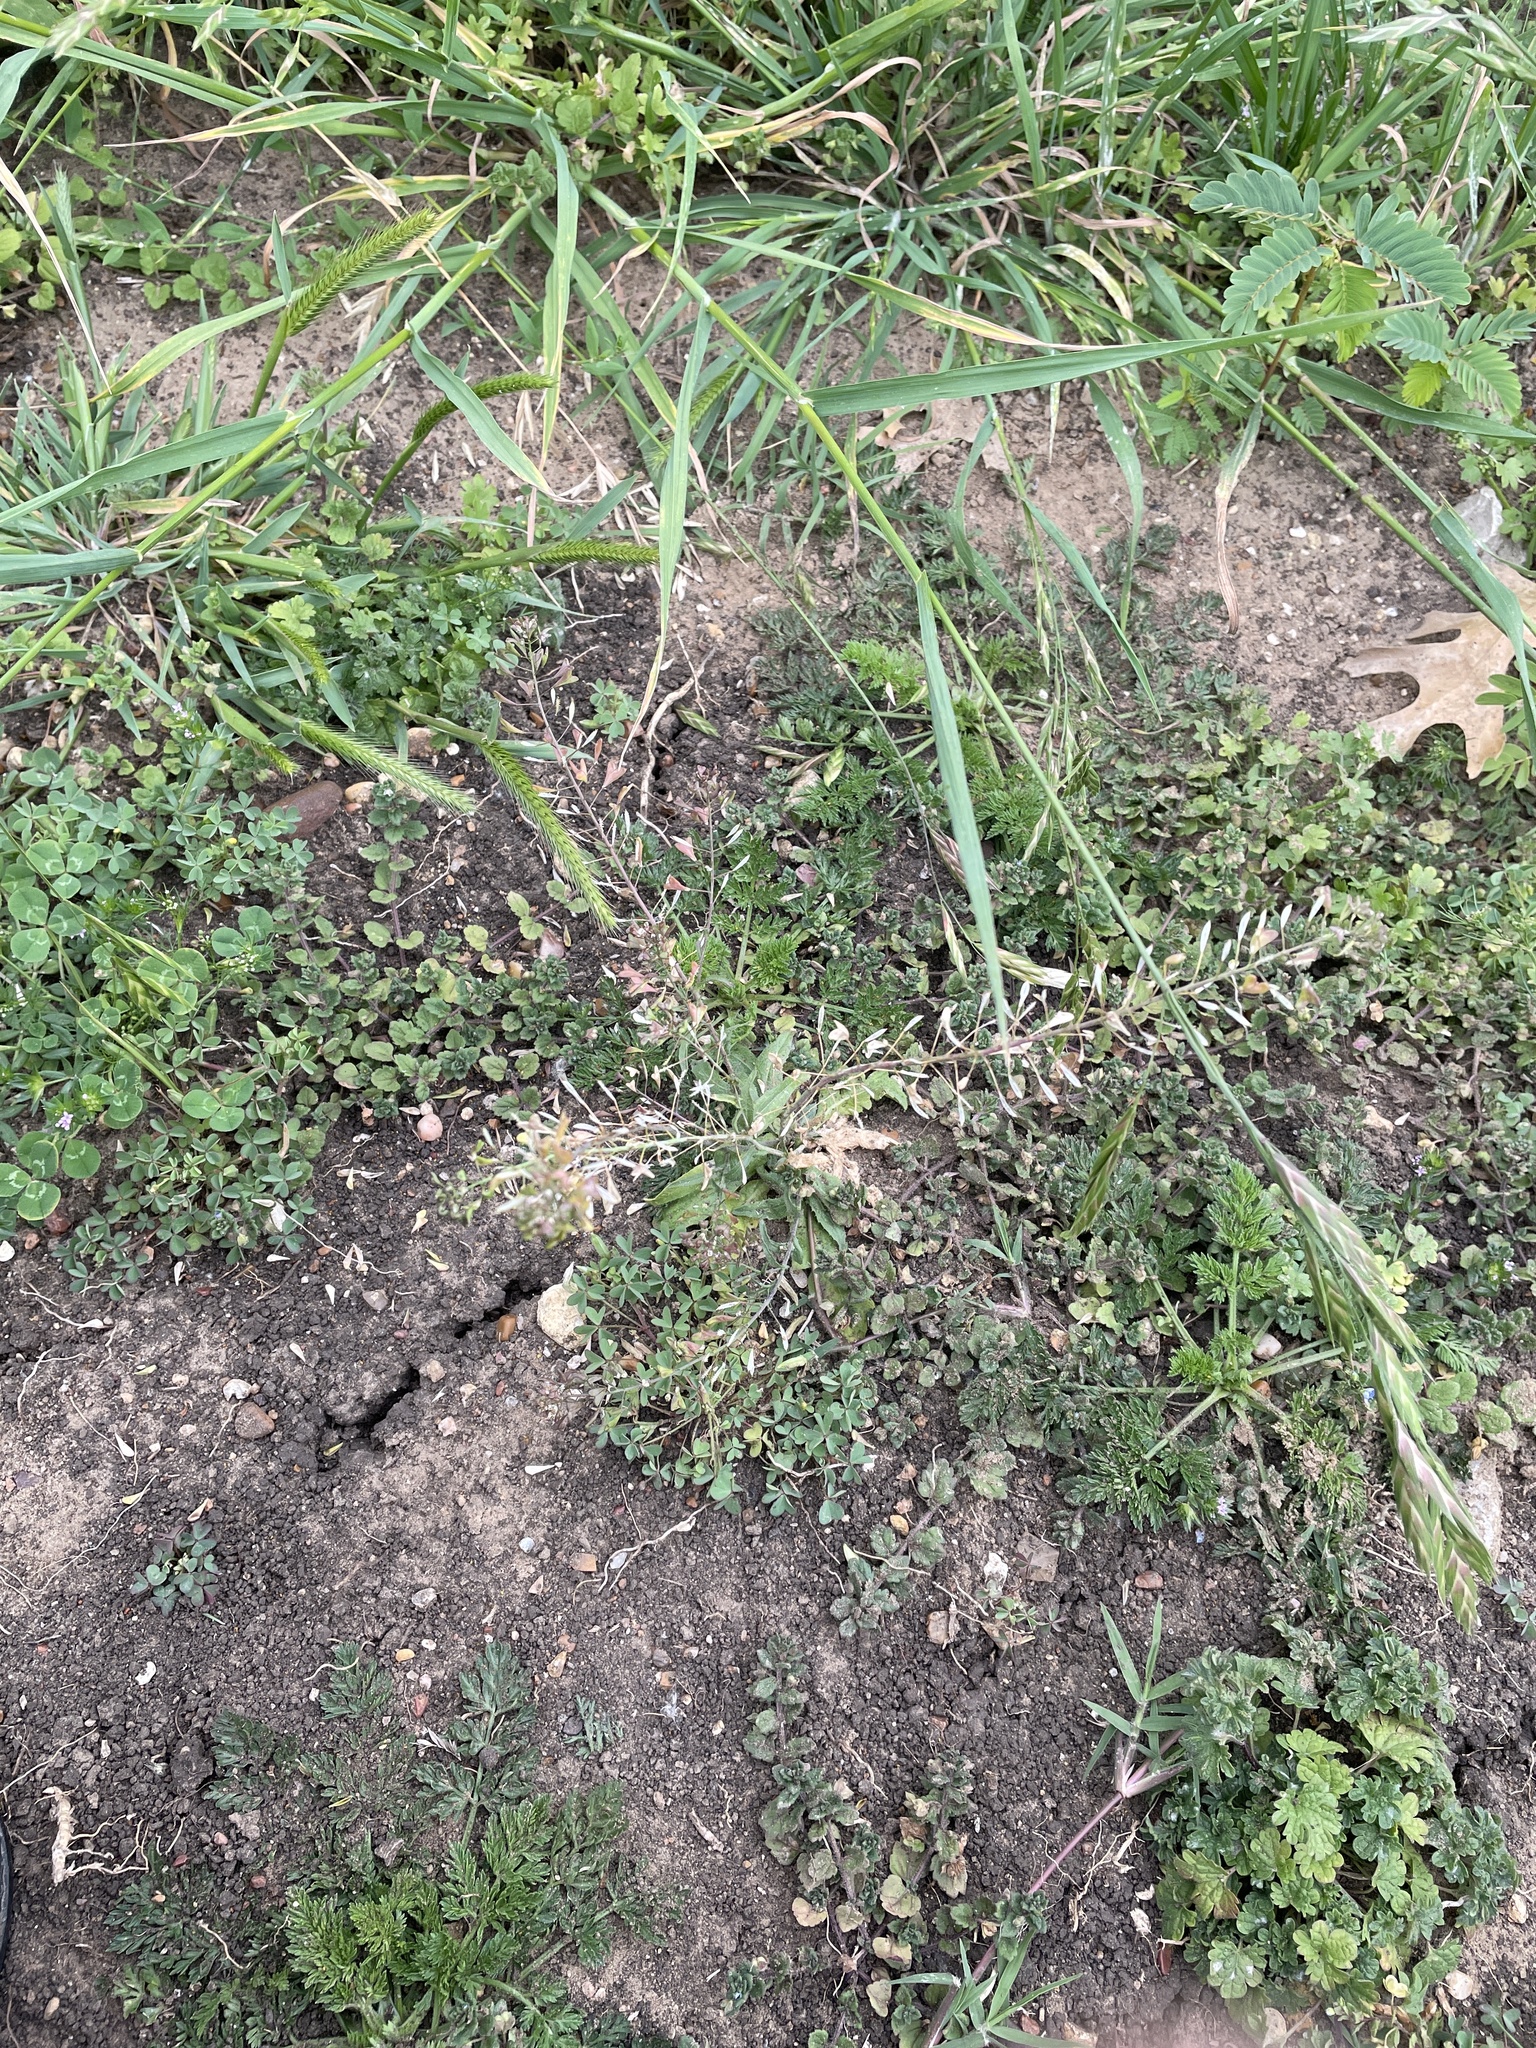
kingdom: Plantae
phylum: Tracheophyta
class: Magnoliopsida
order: Brassicales
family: Brassicaceae
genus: Capsella
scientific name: Capsella bursa-pastoris
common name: Shepherd's purse
